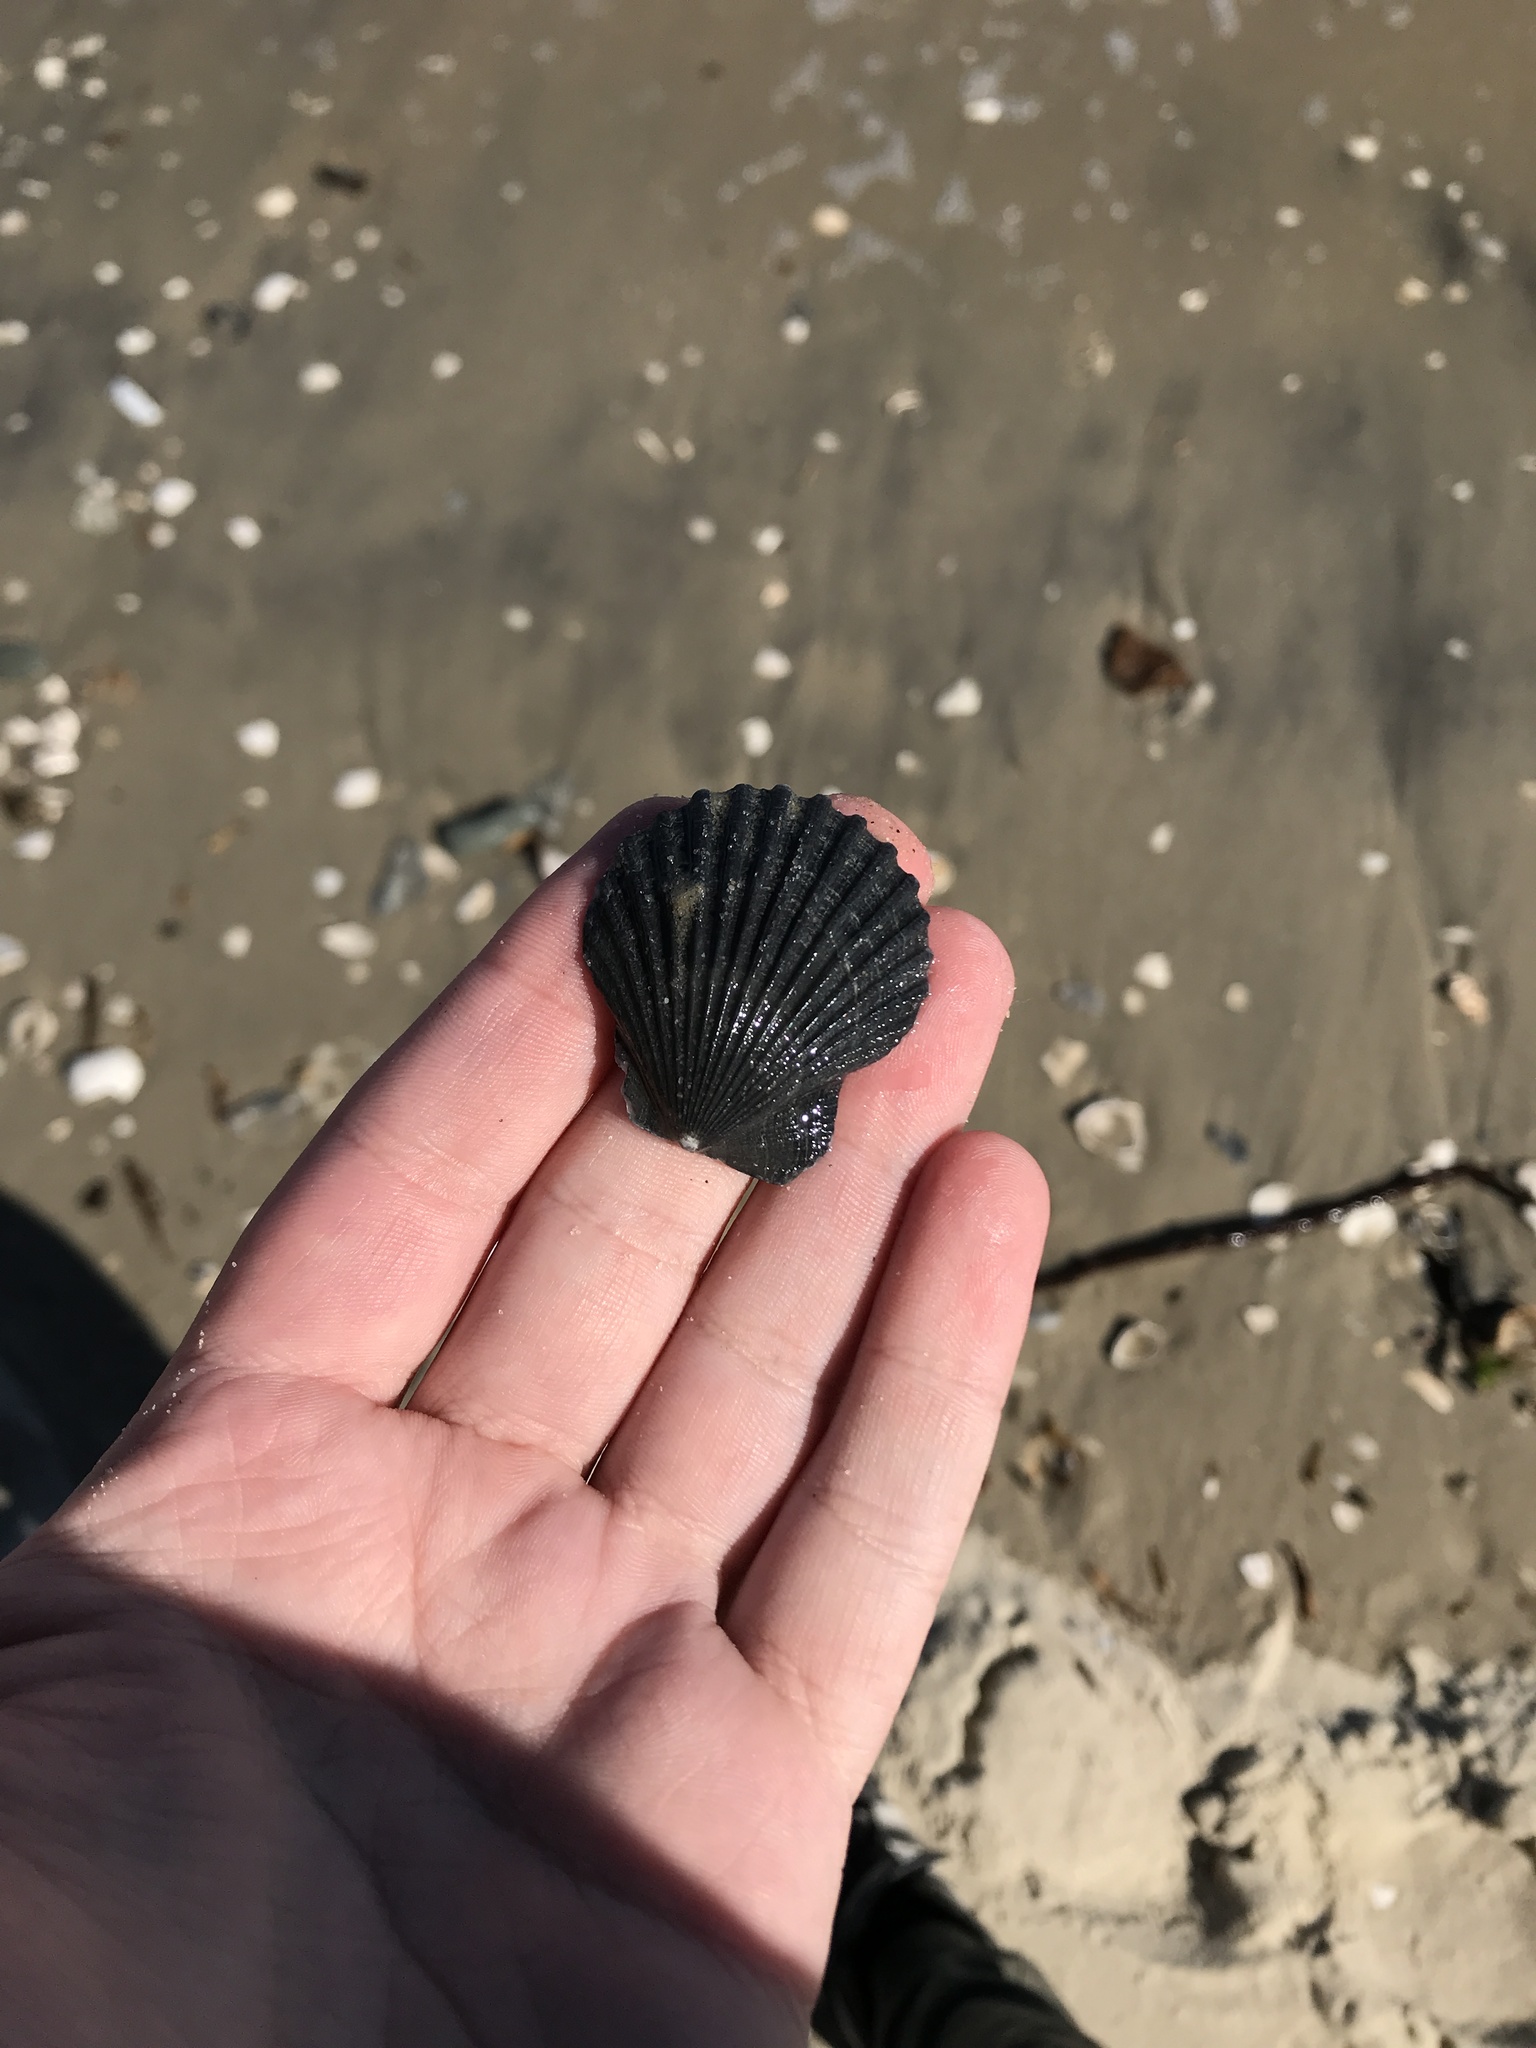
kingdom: Animalia
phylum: Mollusca
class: Bivalvia
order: Pectinida
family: Pectinidae
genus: Argopecten
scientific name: Argopecten irradians
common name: Atlantic bay scallop
